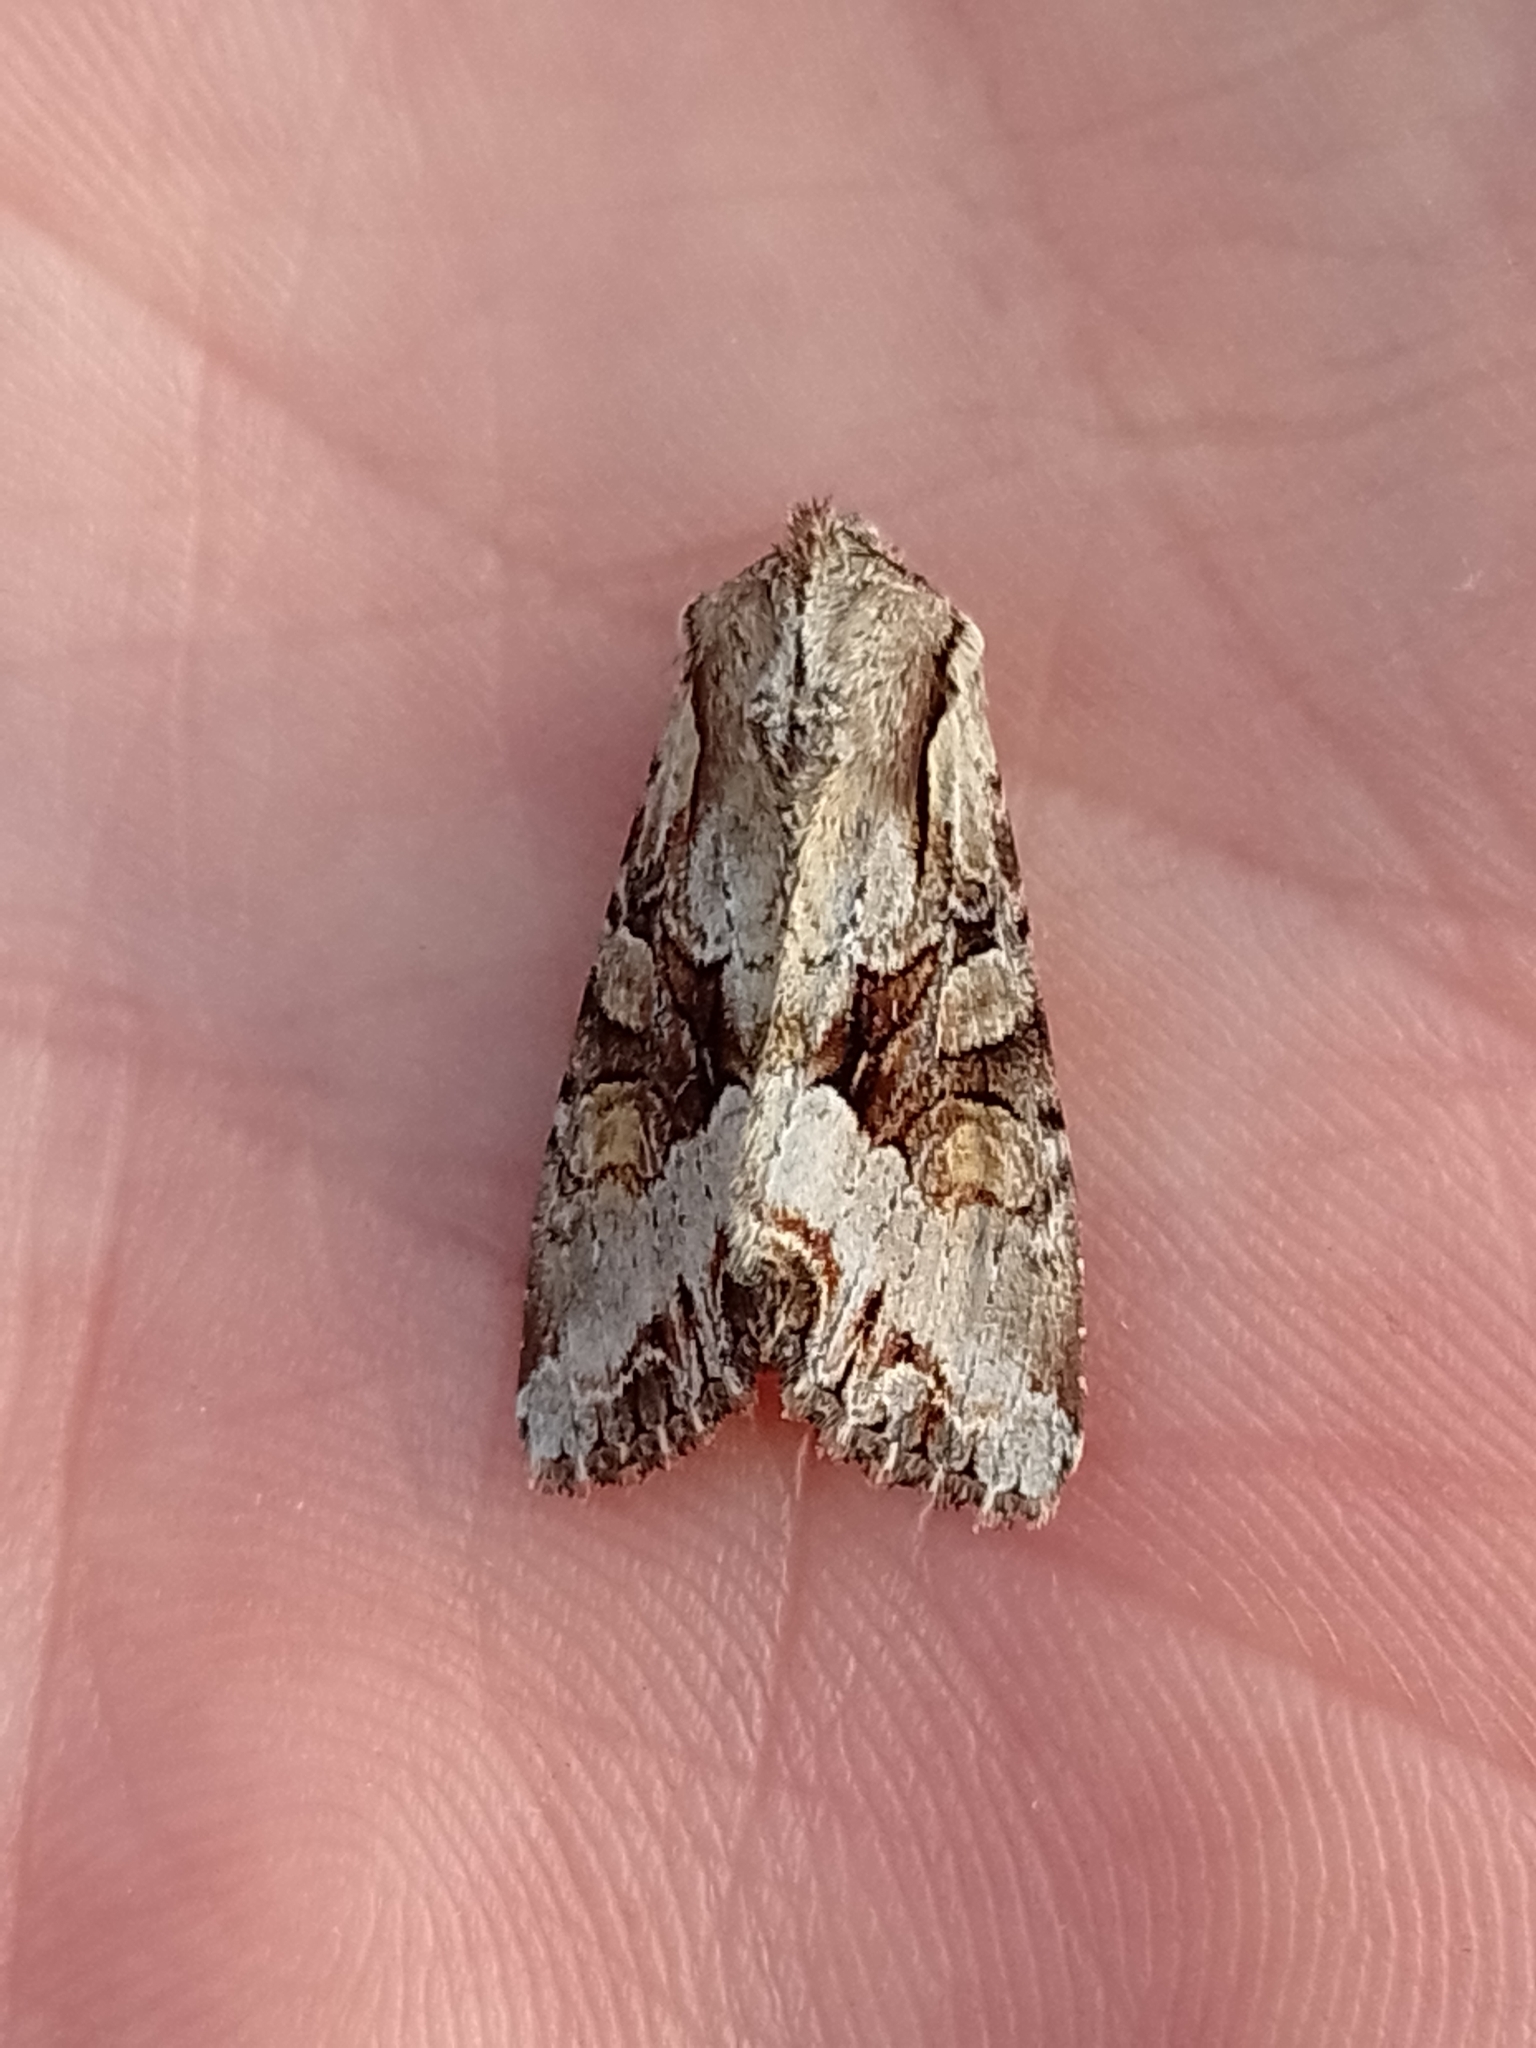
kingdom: Animalia
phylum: Arthropoda
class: Insecta
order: Lepidoptera
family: Noctuidae
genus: Lacanobia
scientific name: Lacanobia w-latinum
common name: Light brocade
